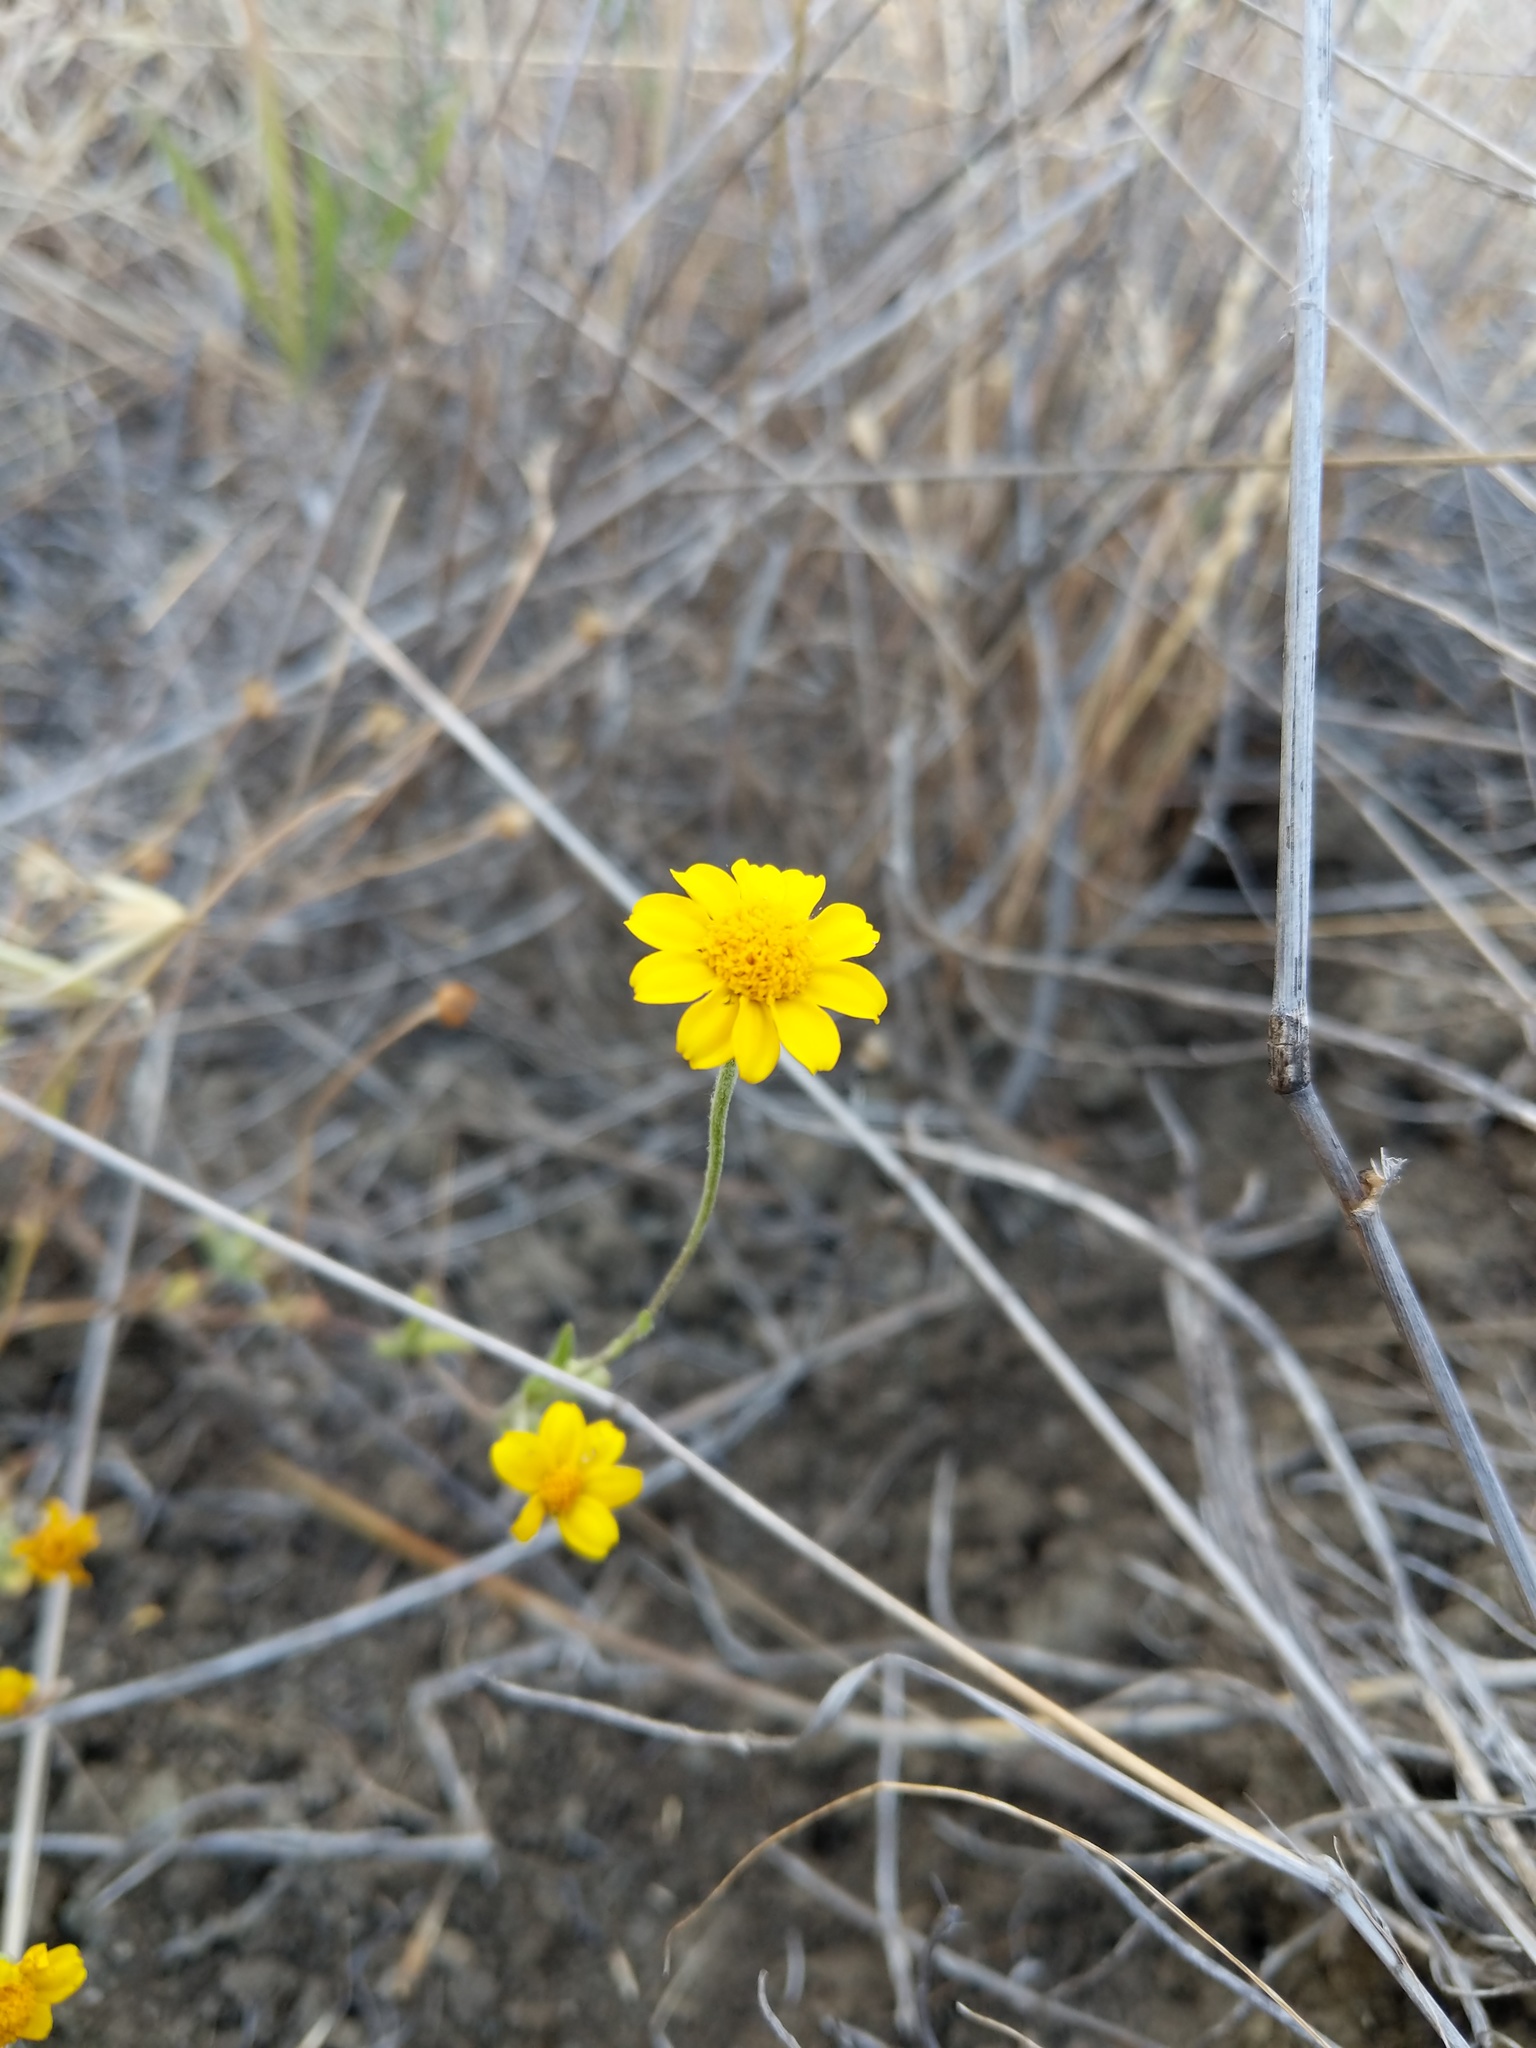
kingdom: Plantae
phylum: Tracheophyta
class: Magnoliopsida
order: Asterales
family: Asteraceae
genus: Monolopia
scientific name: Monolopia gracilens
